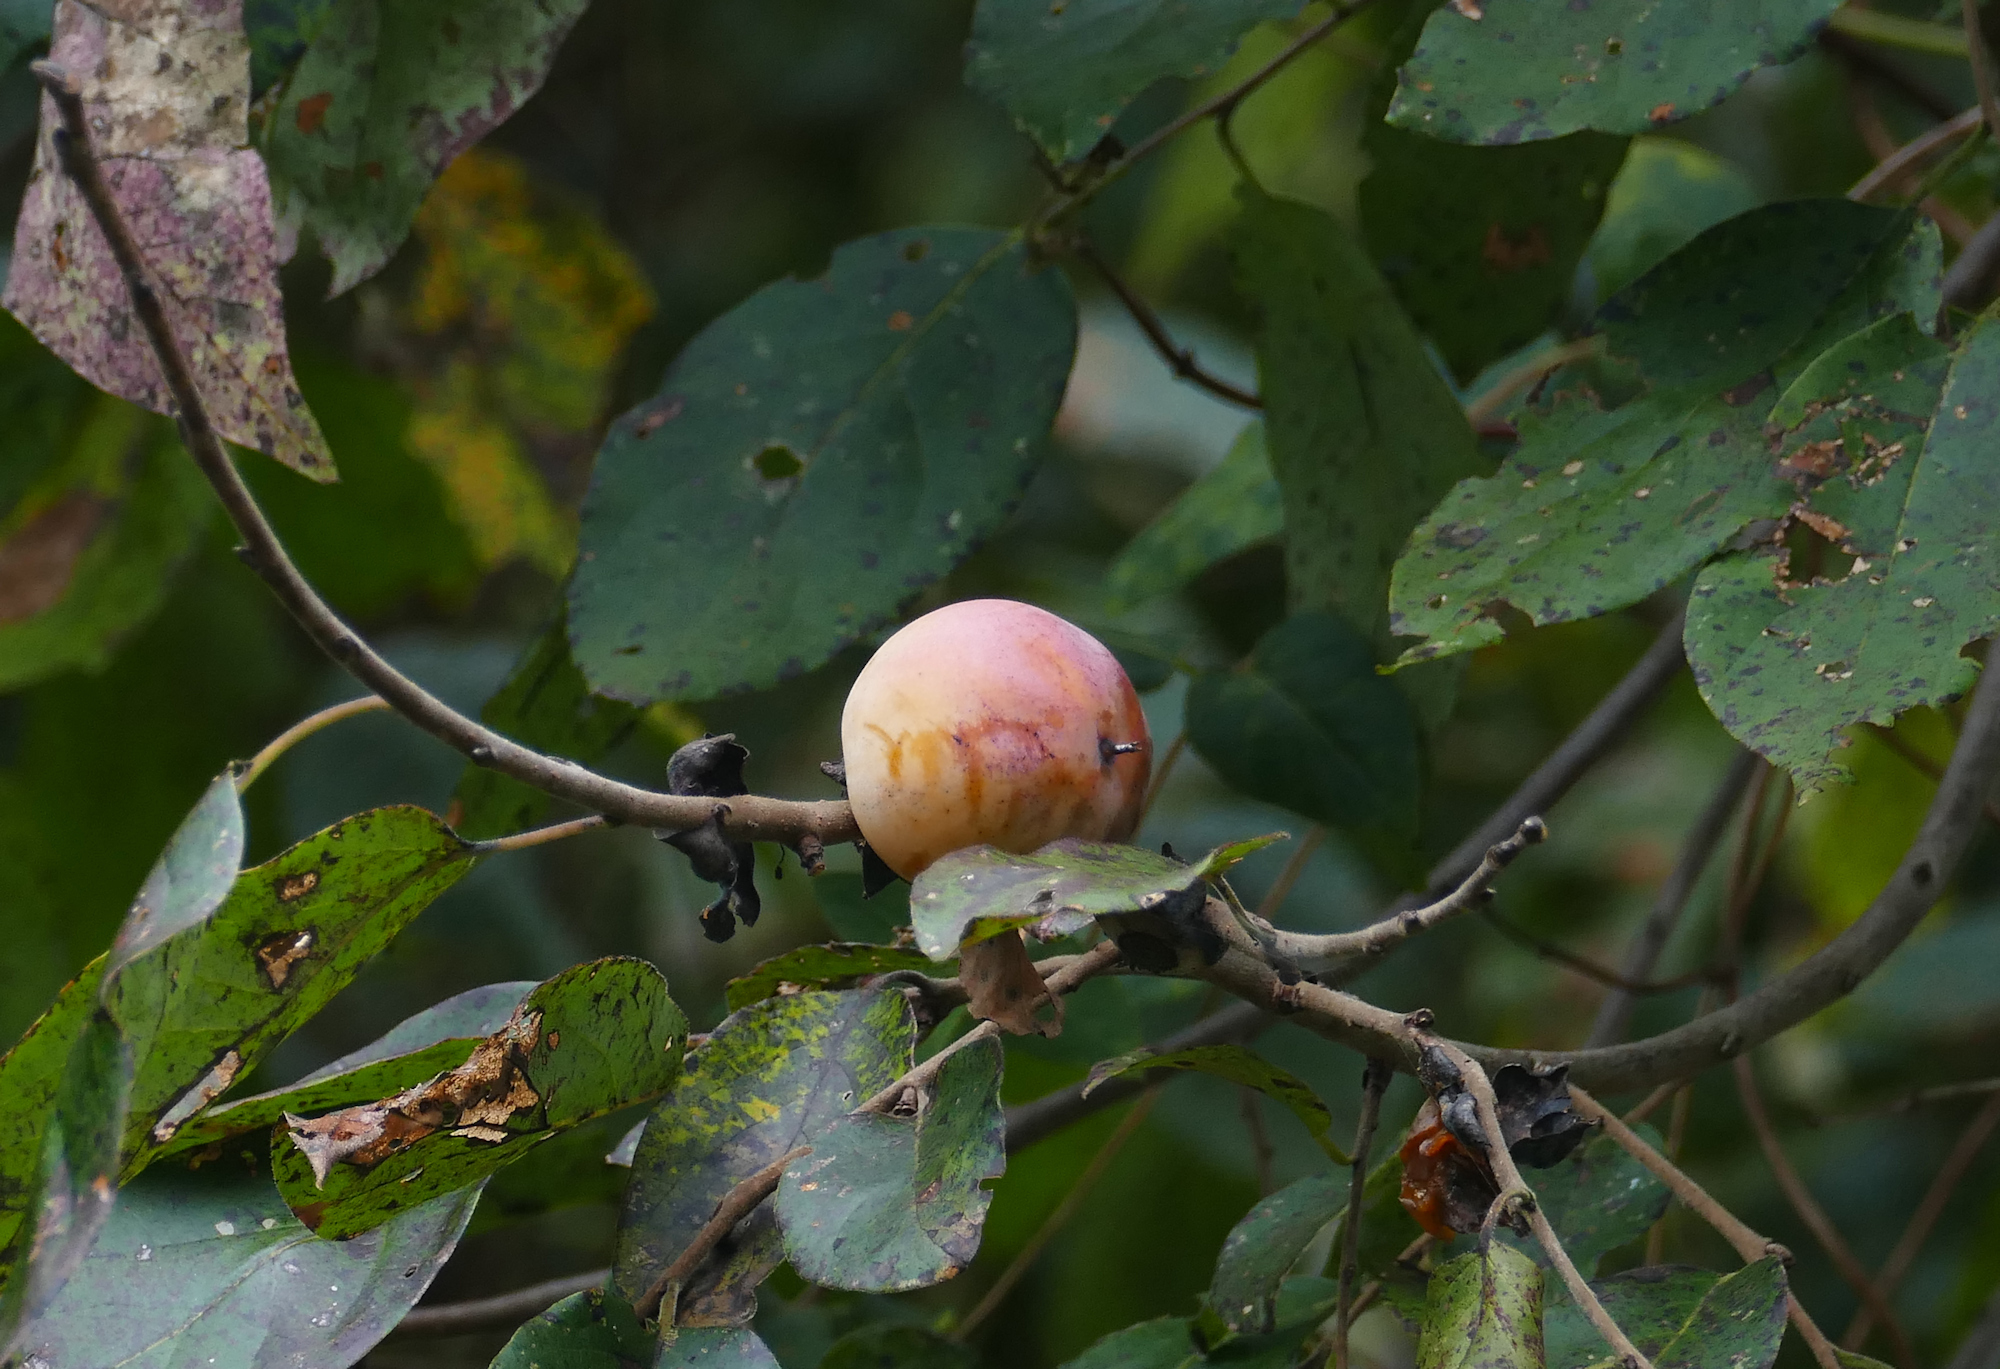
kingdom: Plantae
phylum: Tracheophyta
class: Magnoliopsida
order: Ericales
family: Ebenaceae
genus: Diospyros
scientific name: Diospyros virginiana
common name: Persimmon
